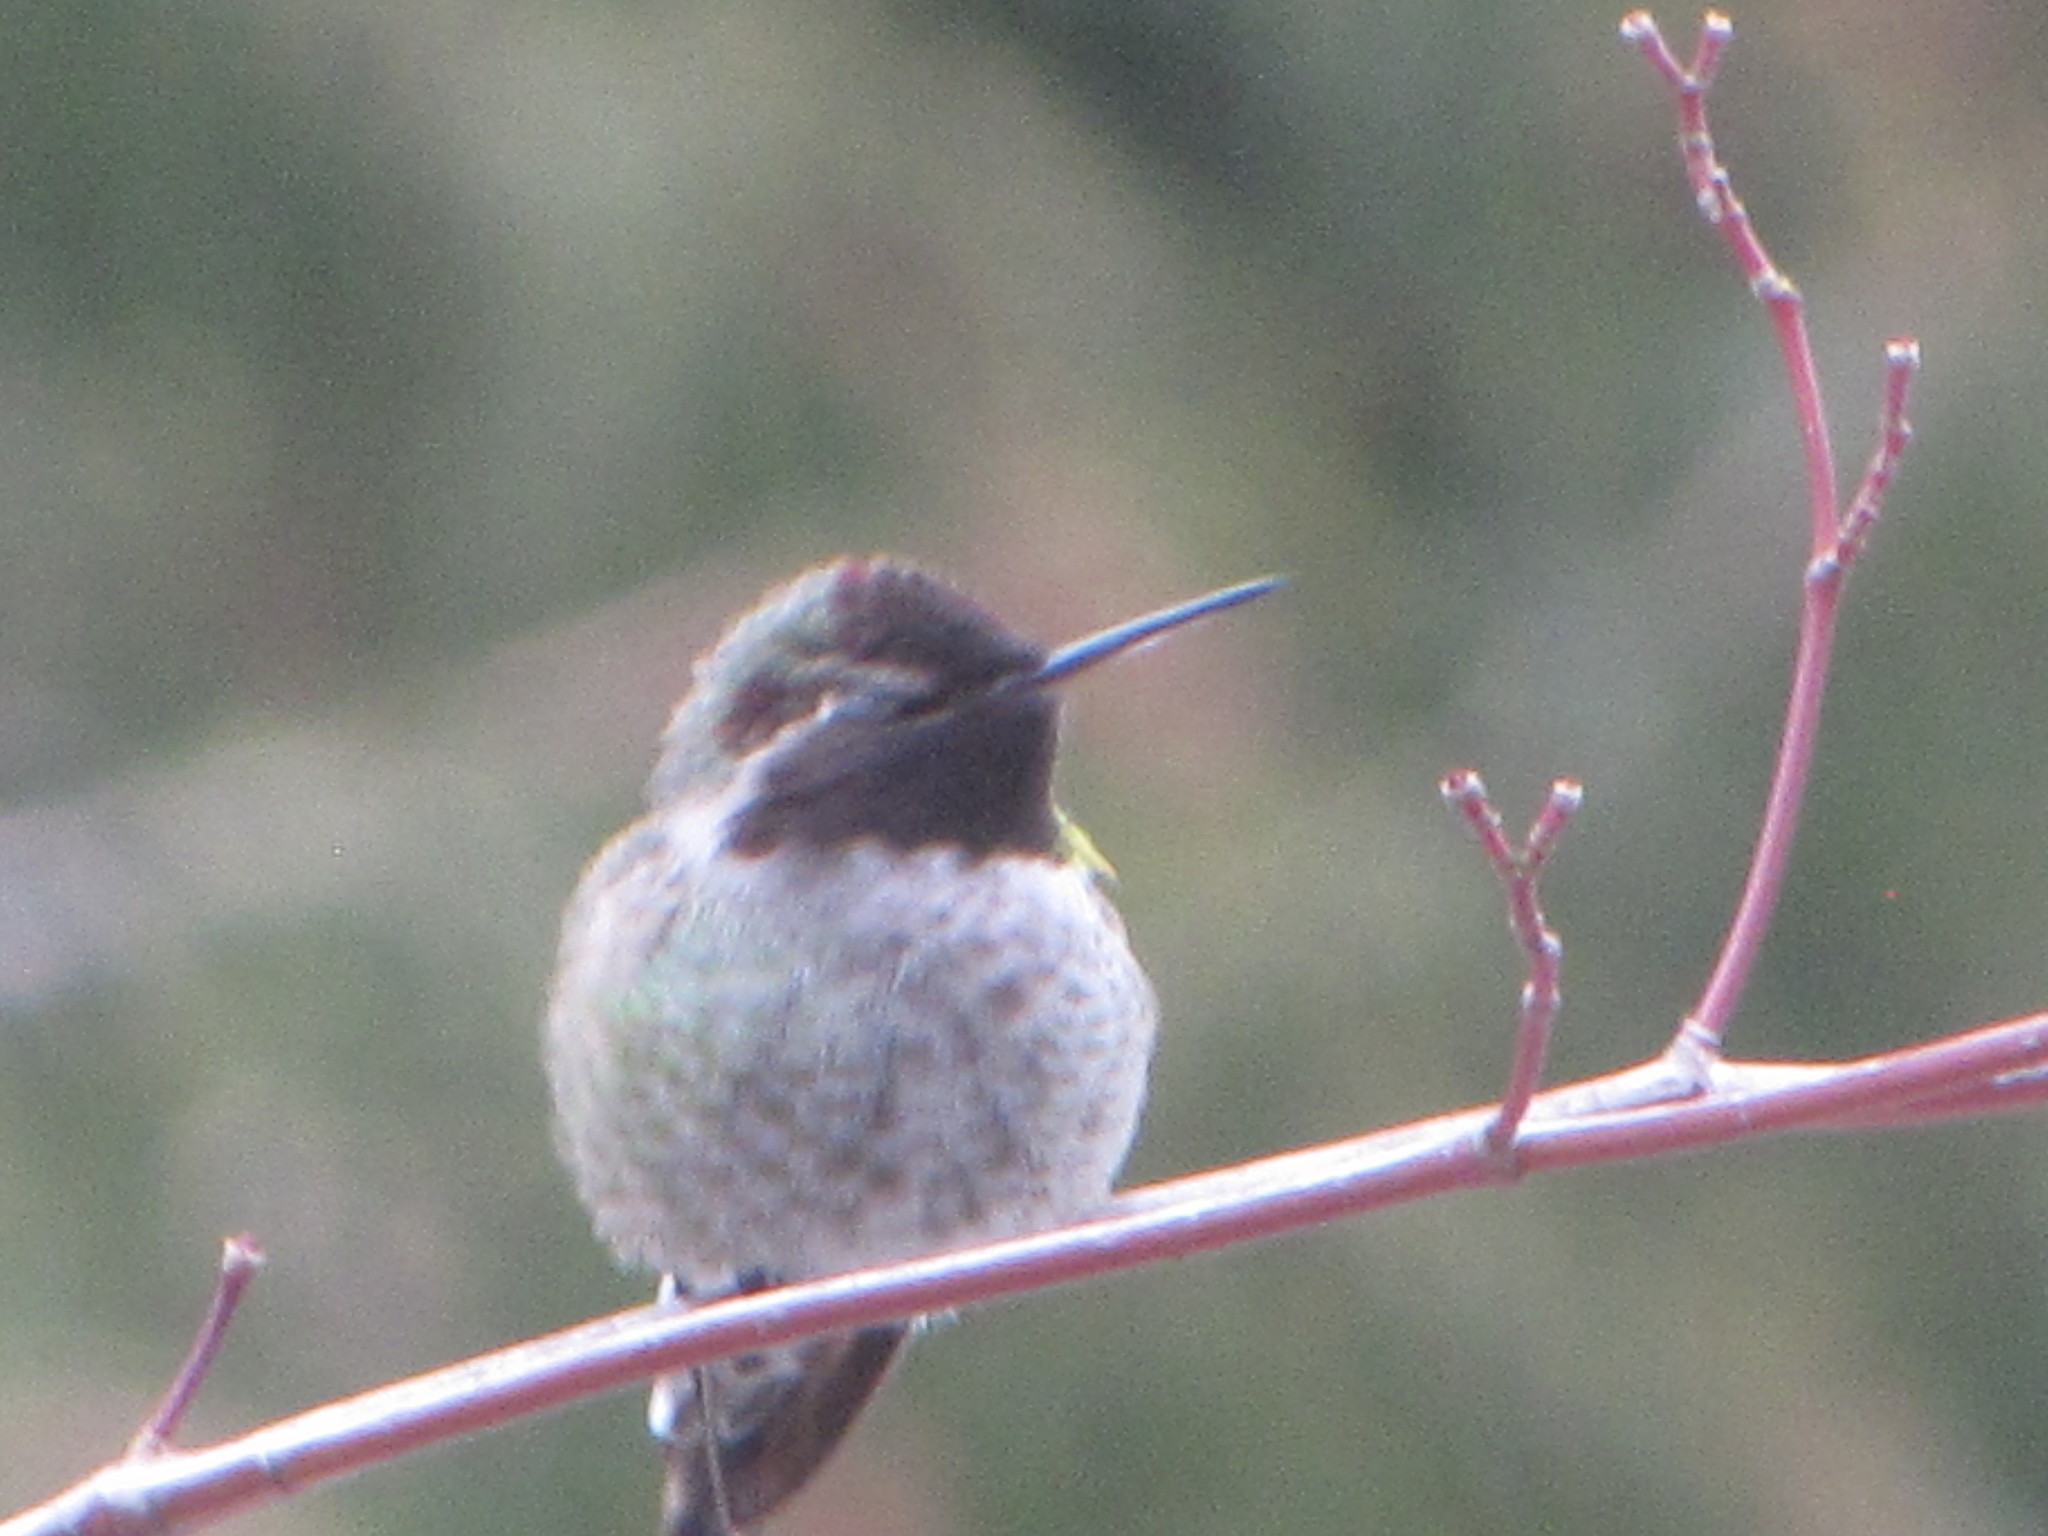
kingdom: Animalia
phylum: Chordata
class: Aves
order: Apodiformes
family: Trochilidae
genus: Calypte
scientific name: Calypte anna
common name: Anna's hummingbird
